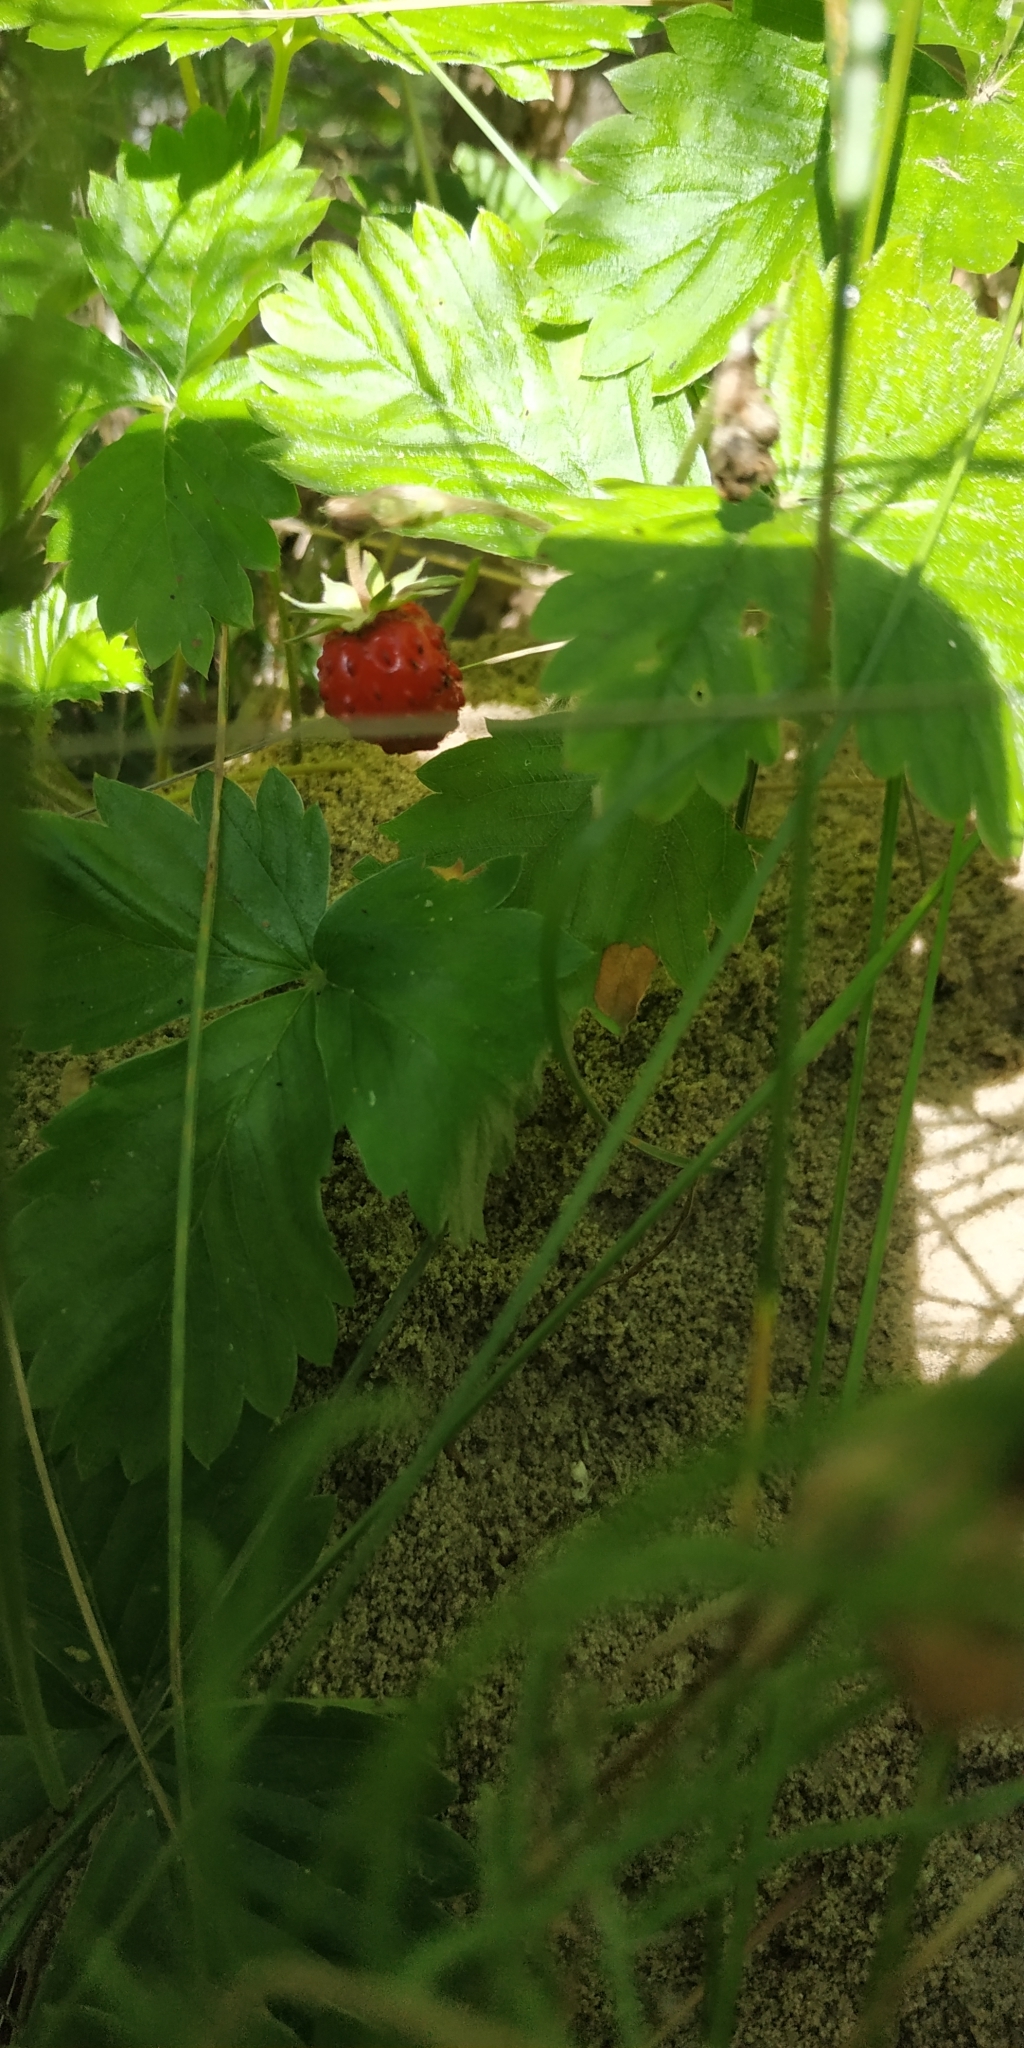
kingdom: Plantae
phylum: Tracheophyta
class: Magnoliopsida
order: Rosales
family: Rosaceae
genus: Fragaria
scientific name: Fragaria vesca
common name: Wild strawberry
